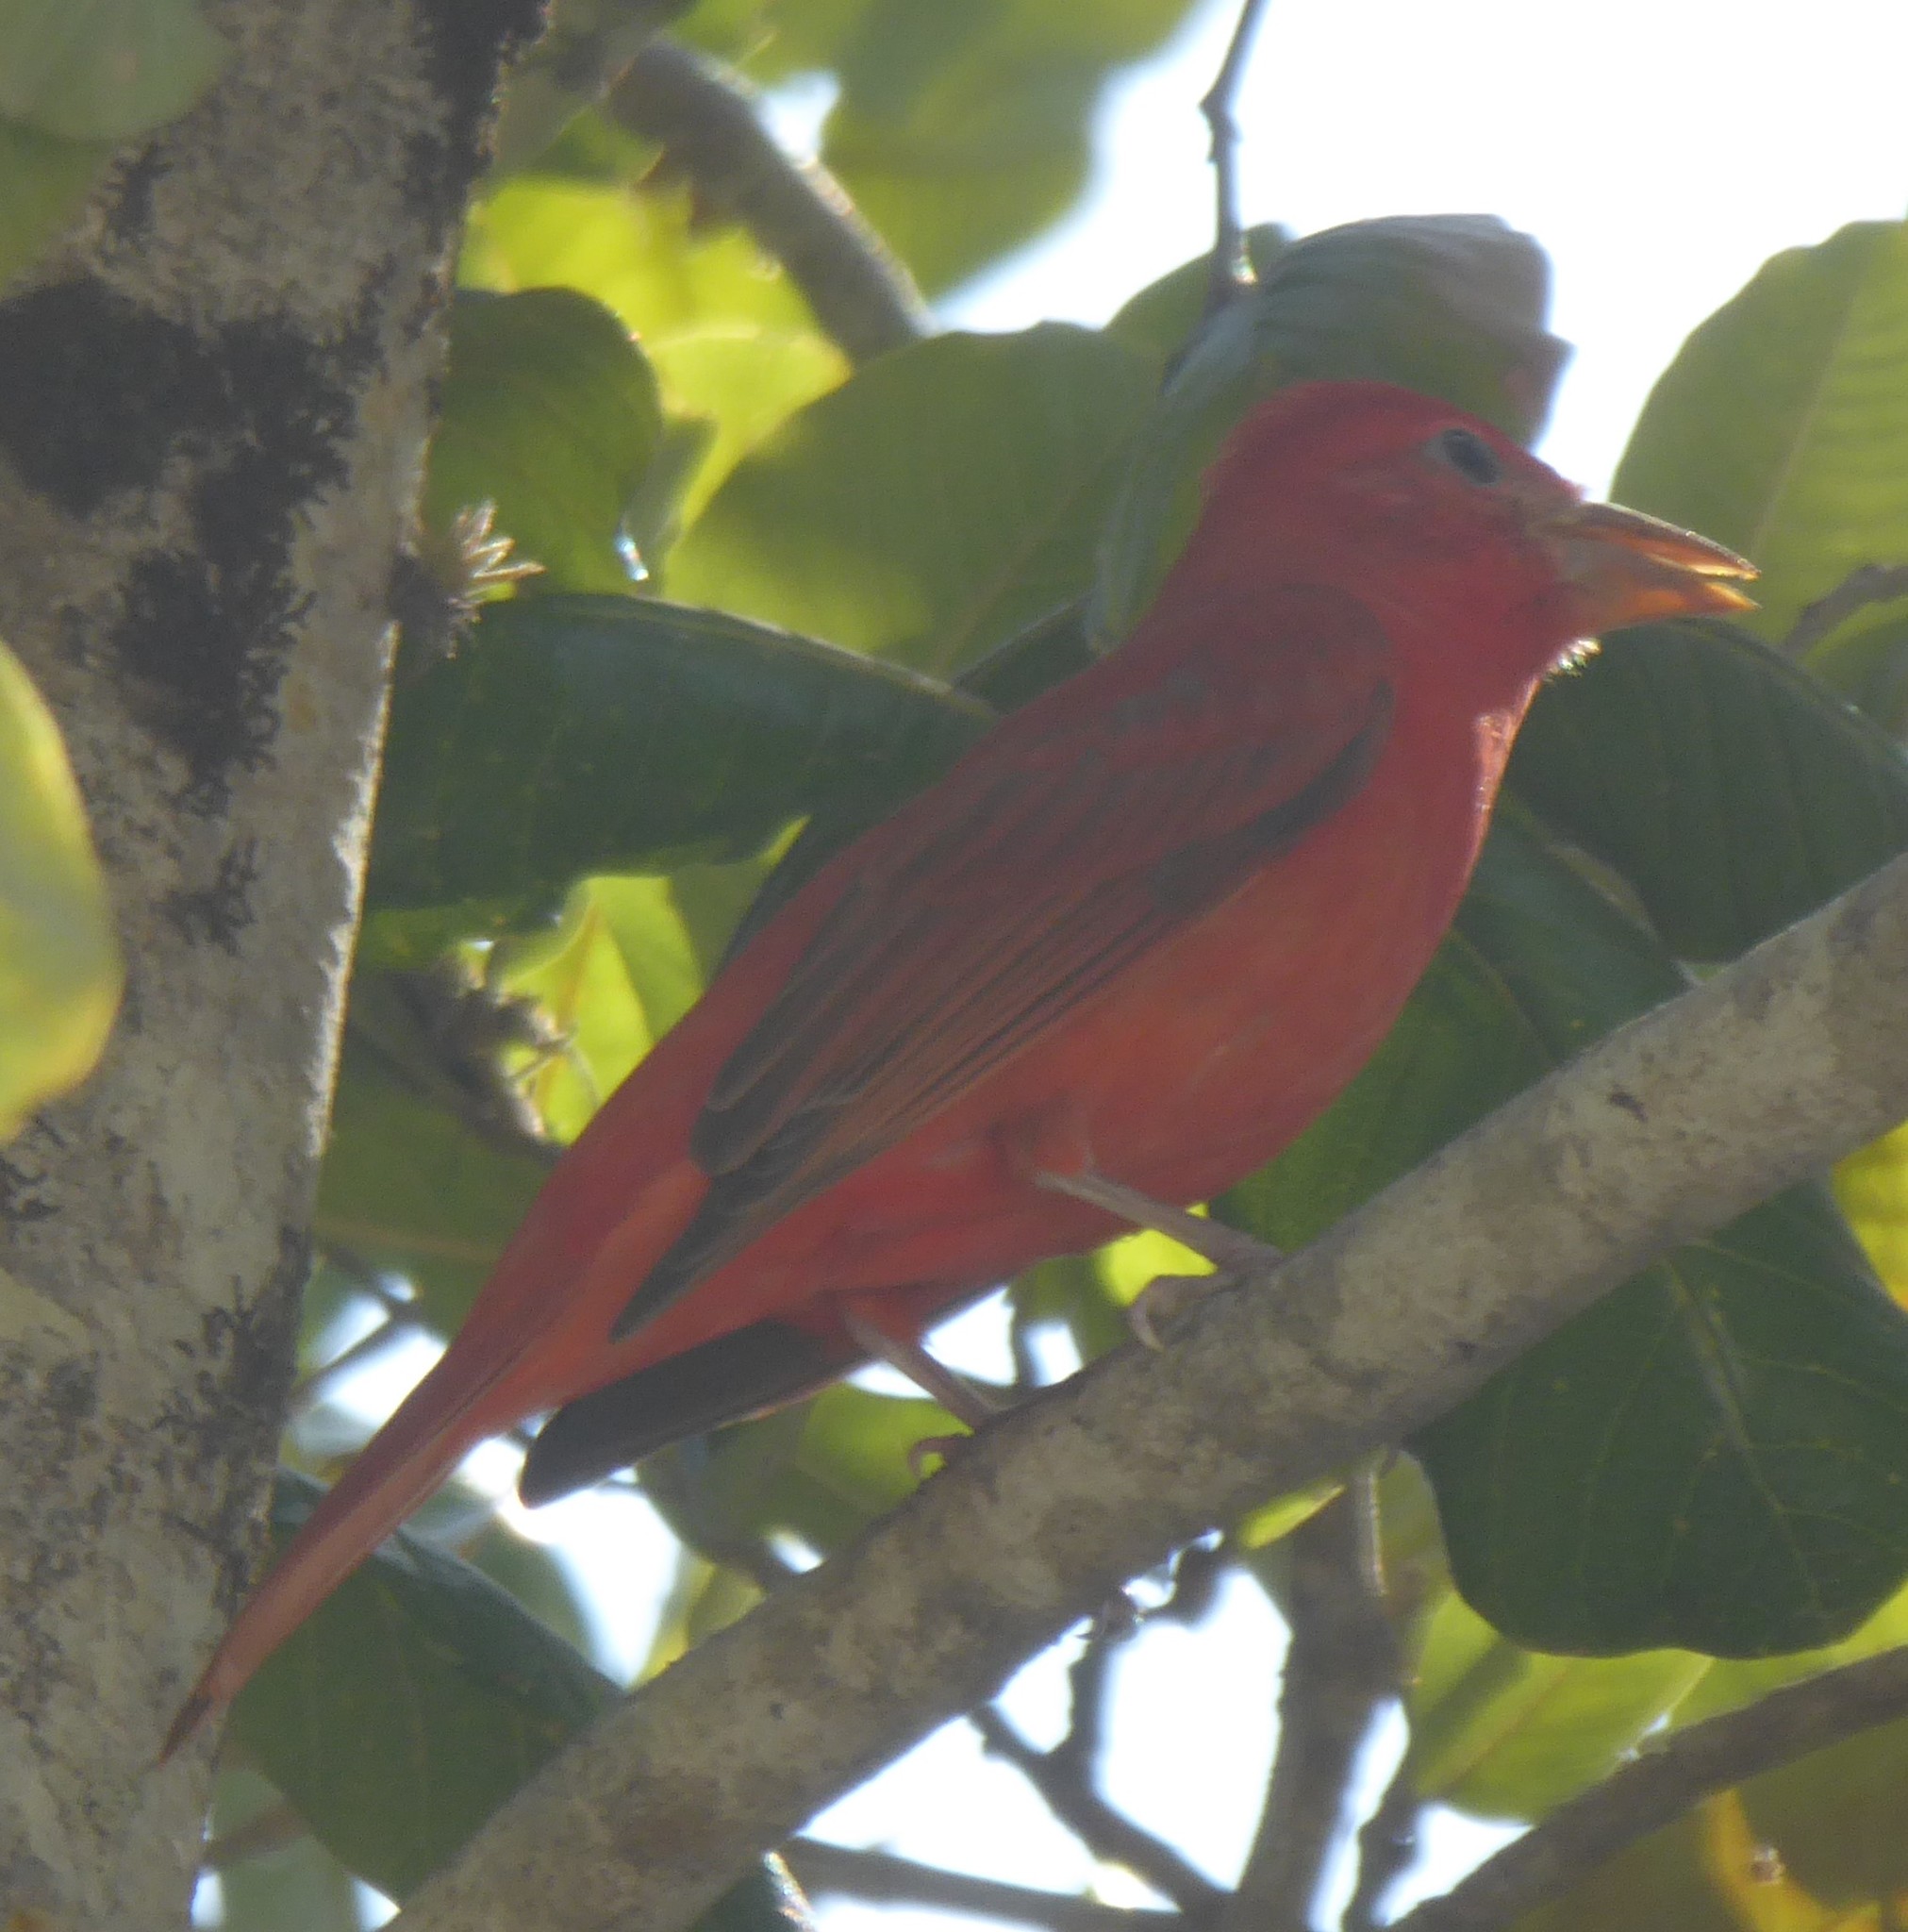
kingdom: Animalia
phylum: Chordata
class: Aves
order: Passeriformes
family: Cardinalidae
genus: Piranga
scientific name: Piranga rubra
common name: Summer tanager
